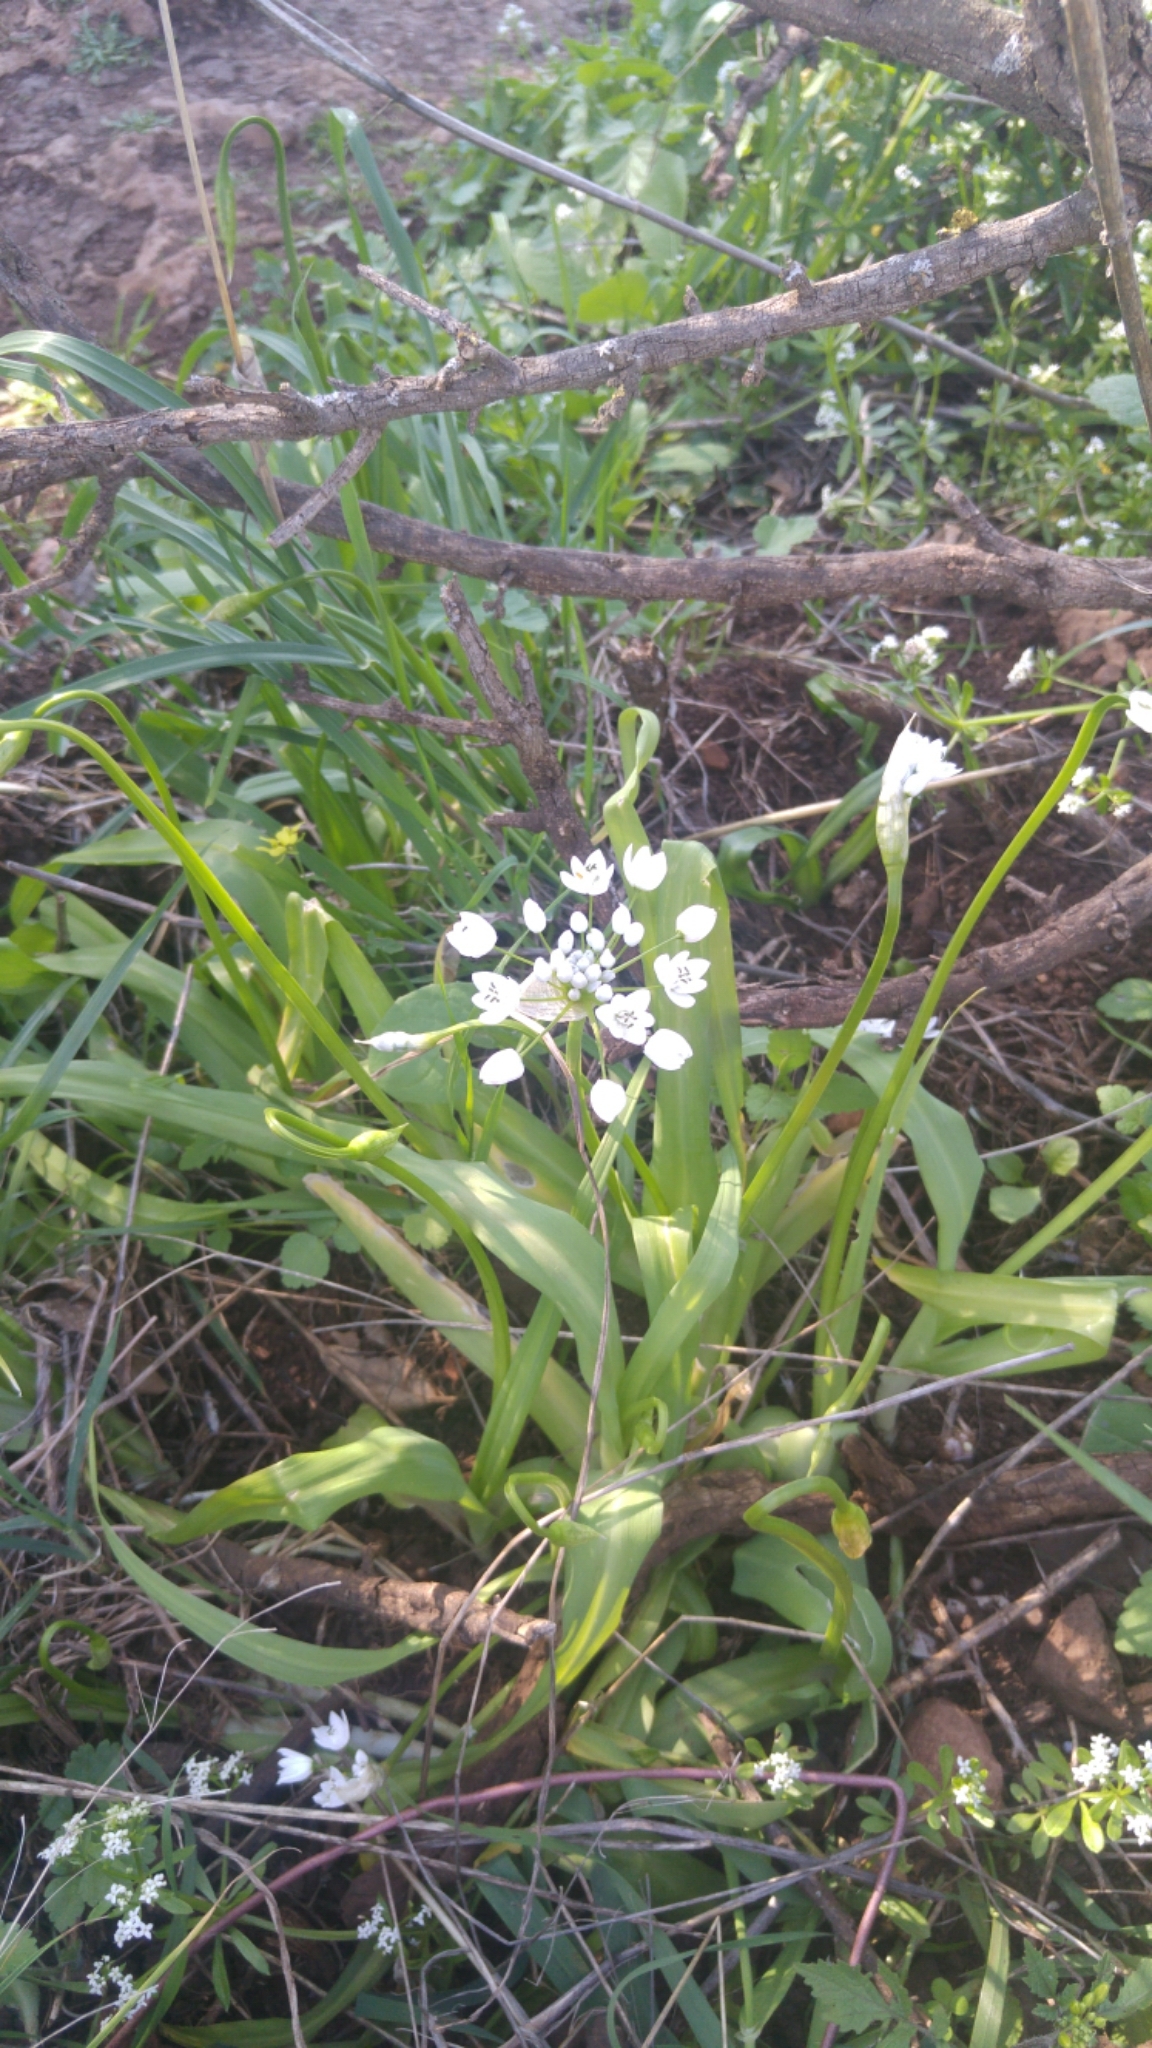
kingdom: Plantae
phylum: Tracheophyta
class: Liliopsida
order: Asparagales
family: Amaryllidaceae
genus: Allium
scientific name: Allium neapolitanum
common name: Neapolitan garlic
